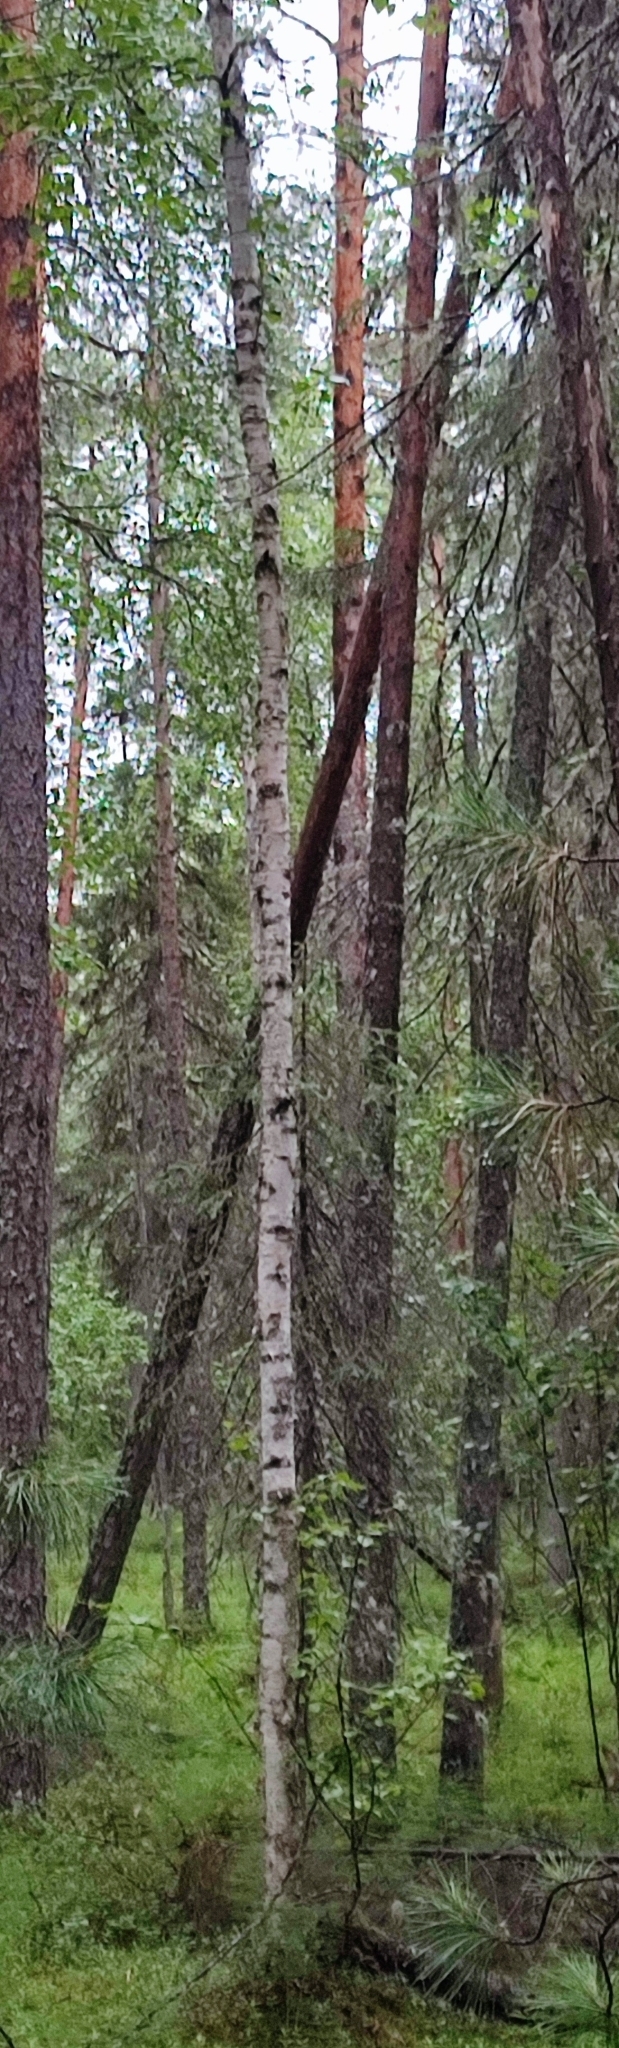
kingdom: Plantae
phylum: Tracheophyta
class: Magnoliopsida
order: Fagales
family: Betulaceae
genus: Betula
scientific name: Betula pubescens
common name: Downy birch
